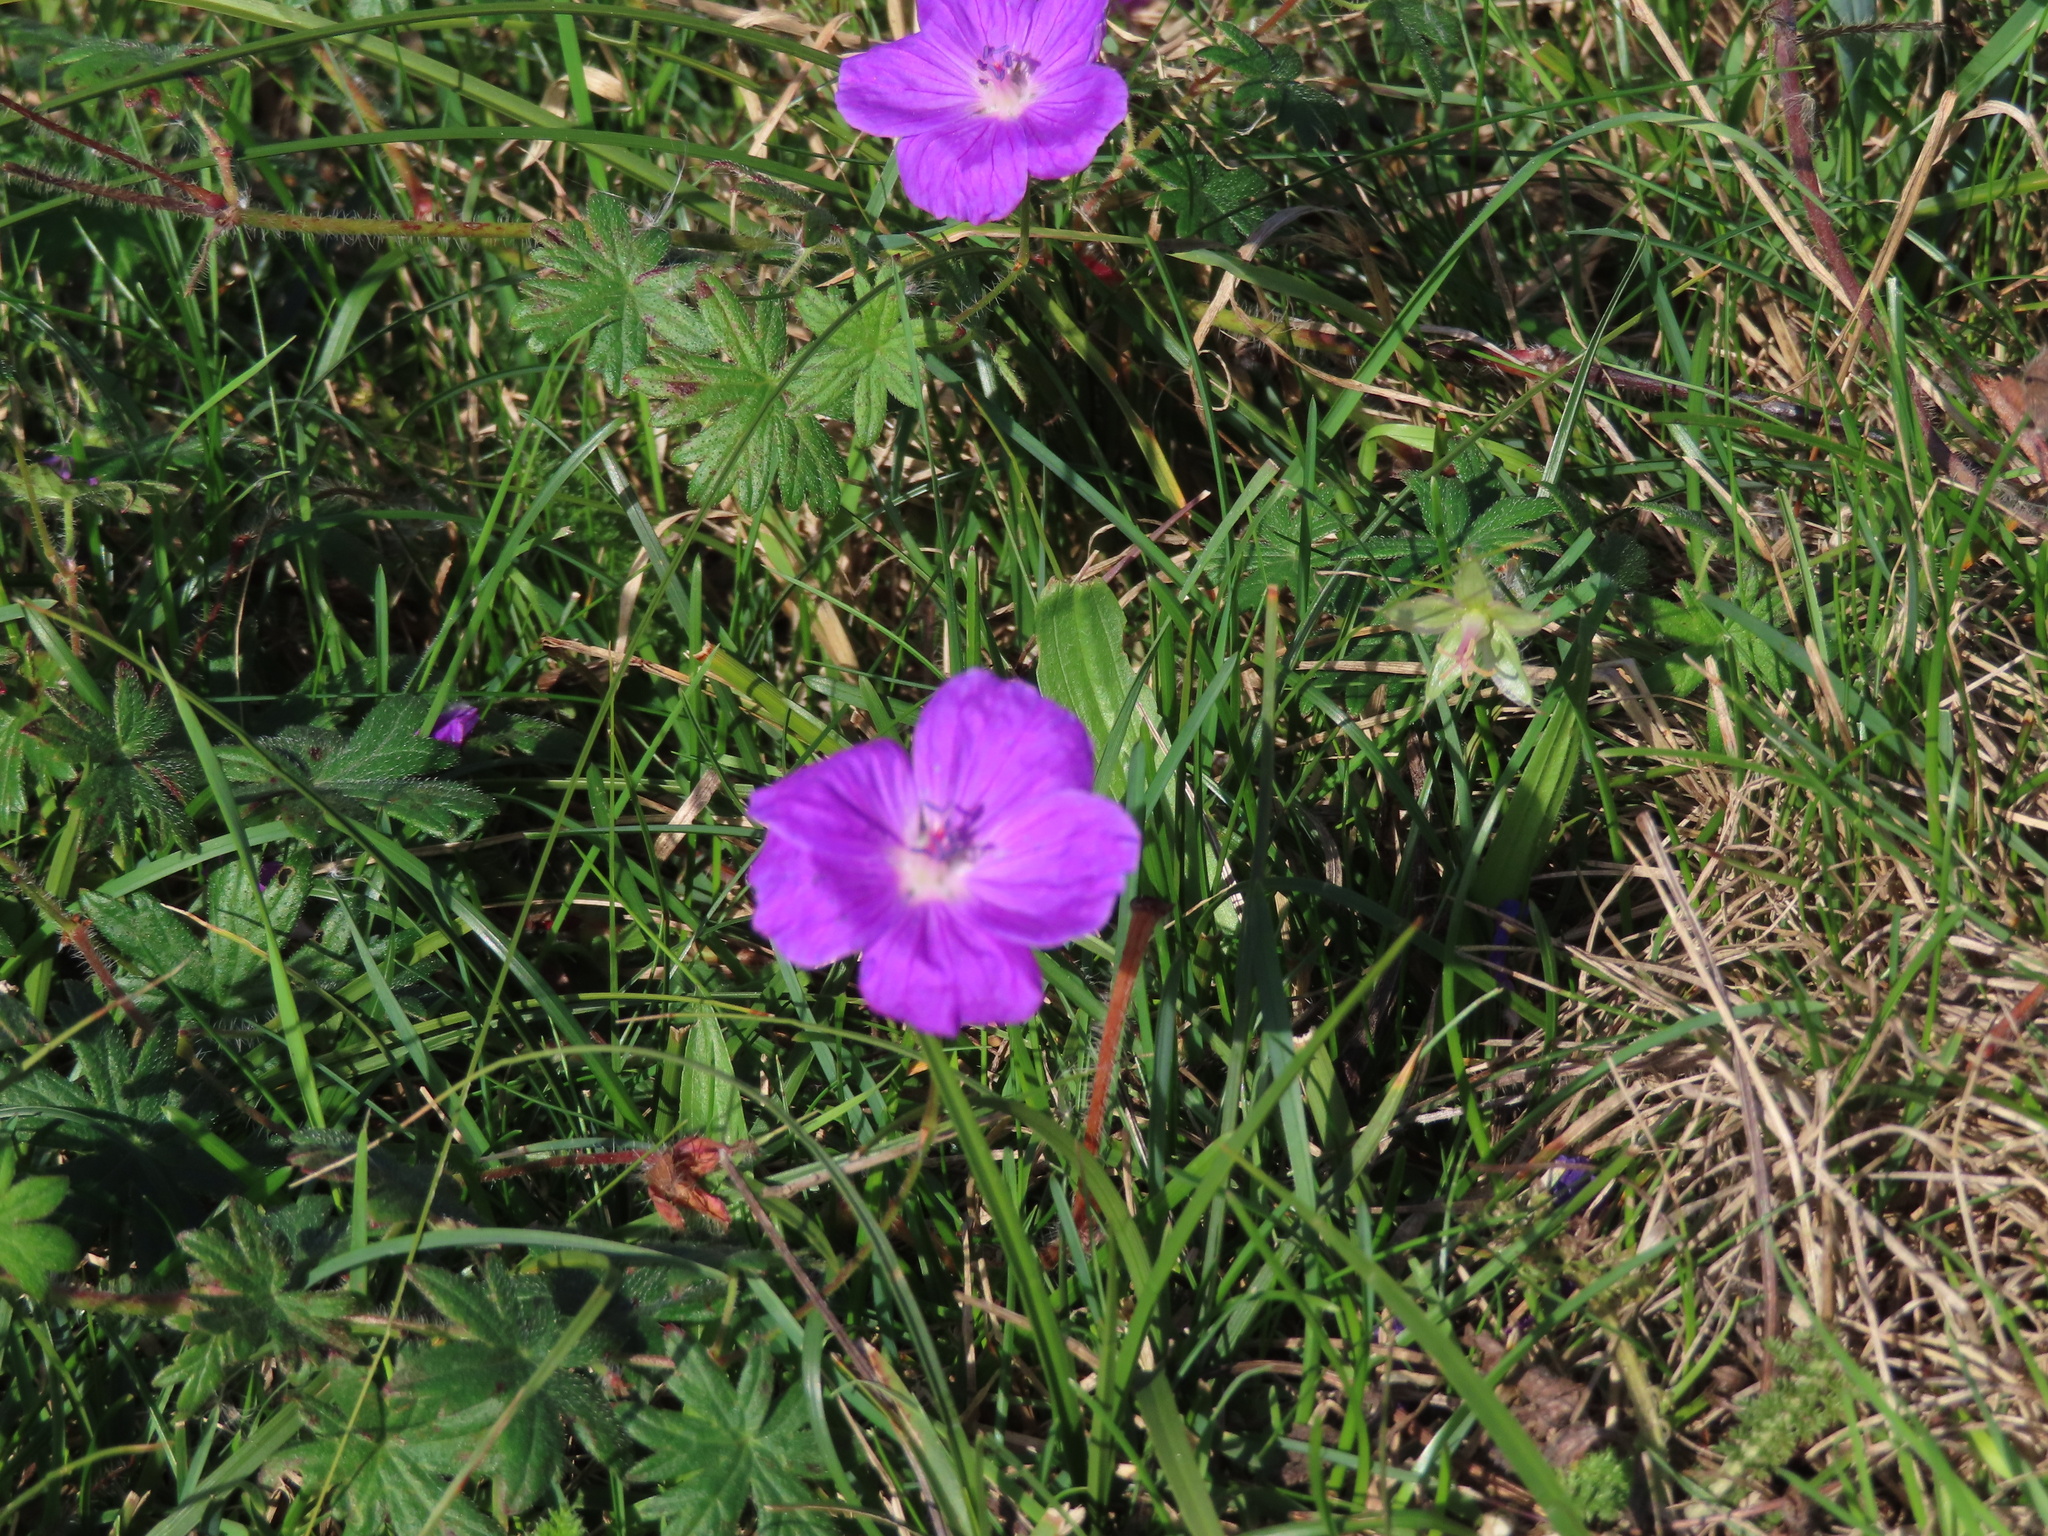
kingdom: Plantae
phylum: Tracheophyta
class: Magnoliopsida
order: Geraniales
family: Geraniaceae
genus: Geranium
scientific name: Geranium sanguineum
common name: Bloody crane's-bill
